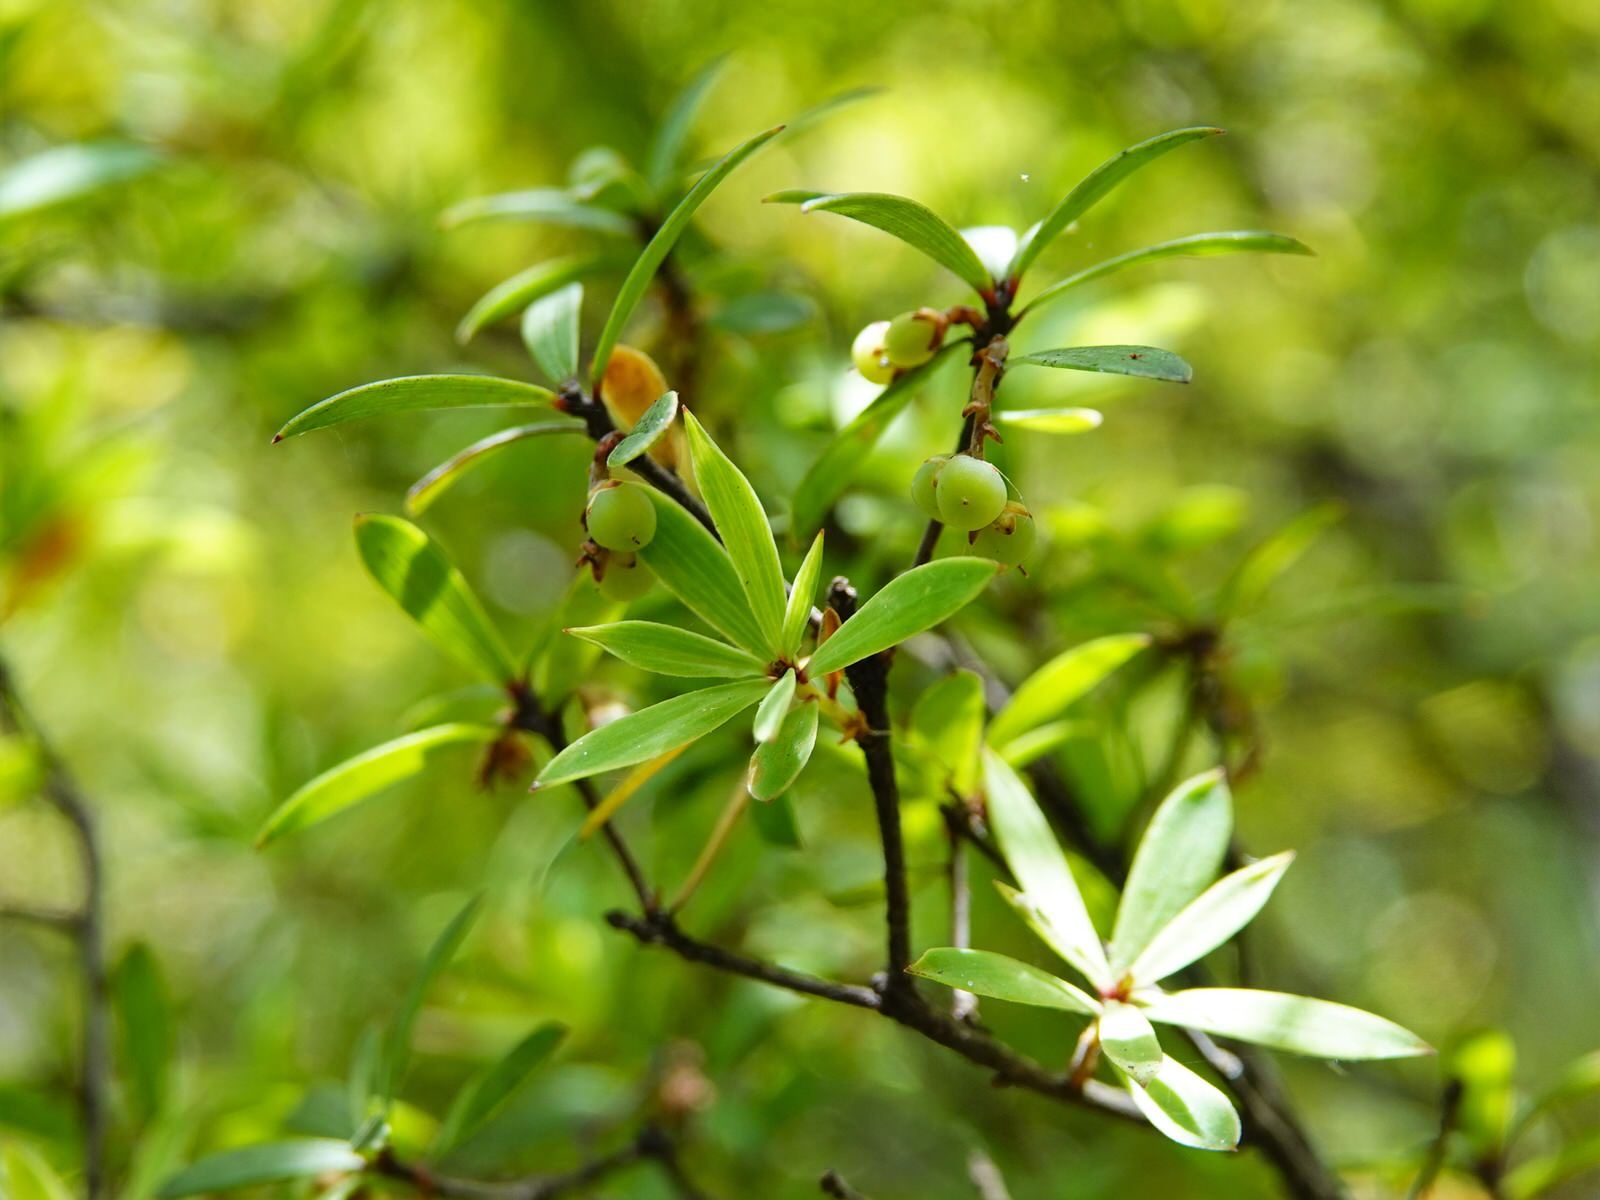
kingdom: Plantae
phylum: Tracheophyta
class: Magnoliopsida
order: Ericales
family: Ericaceae
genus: Leucopogon
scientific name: Leucopogon fasciculatus
